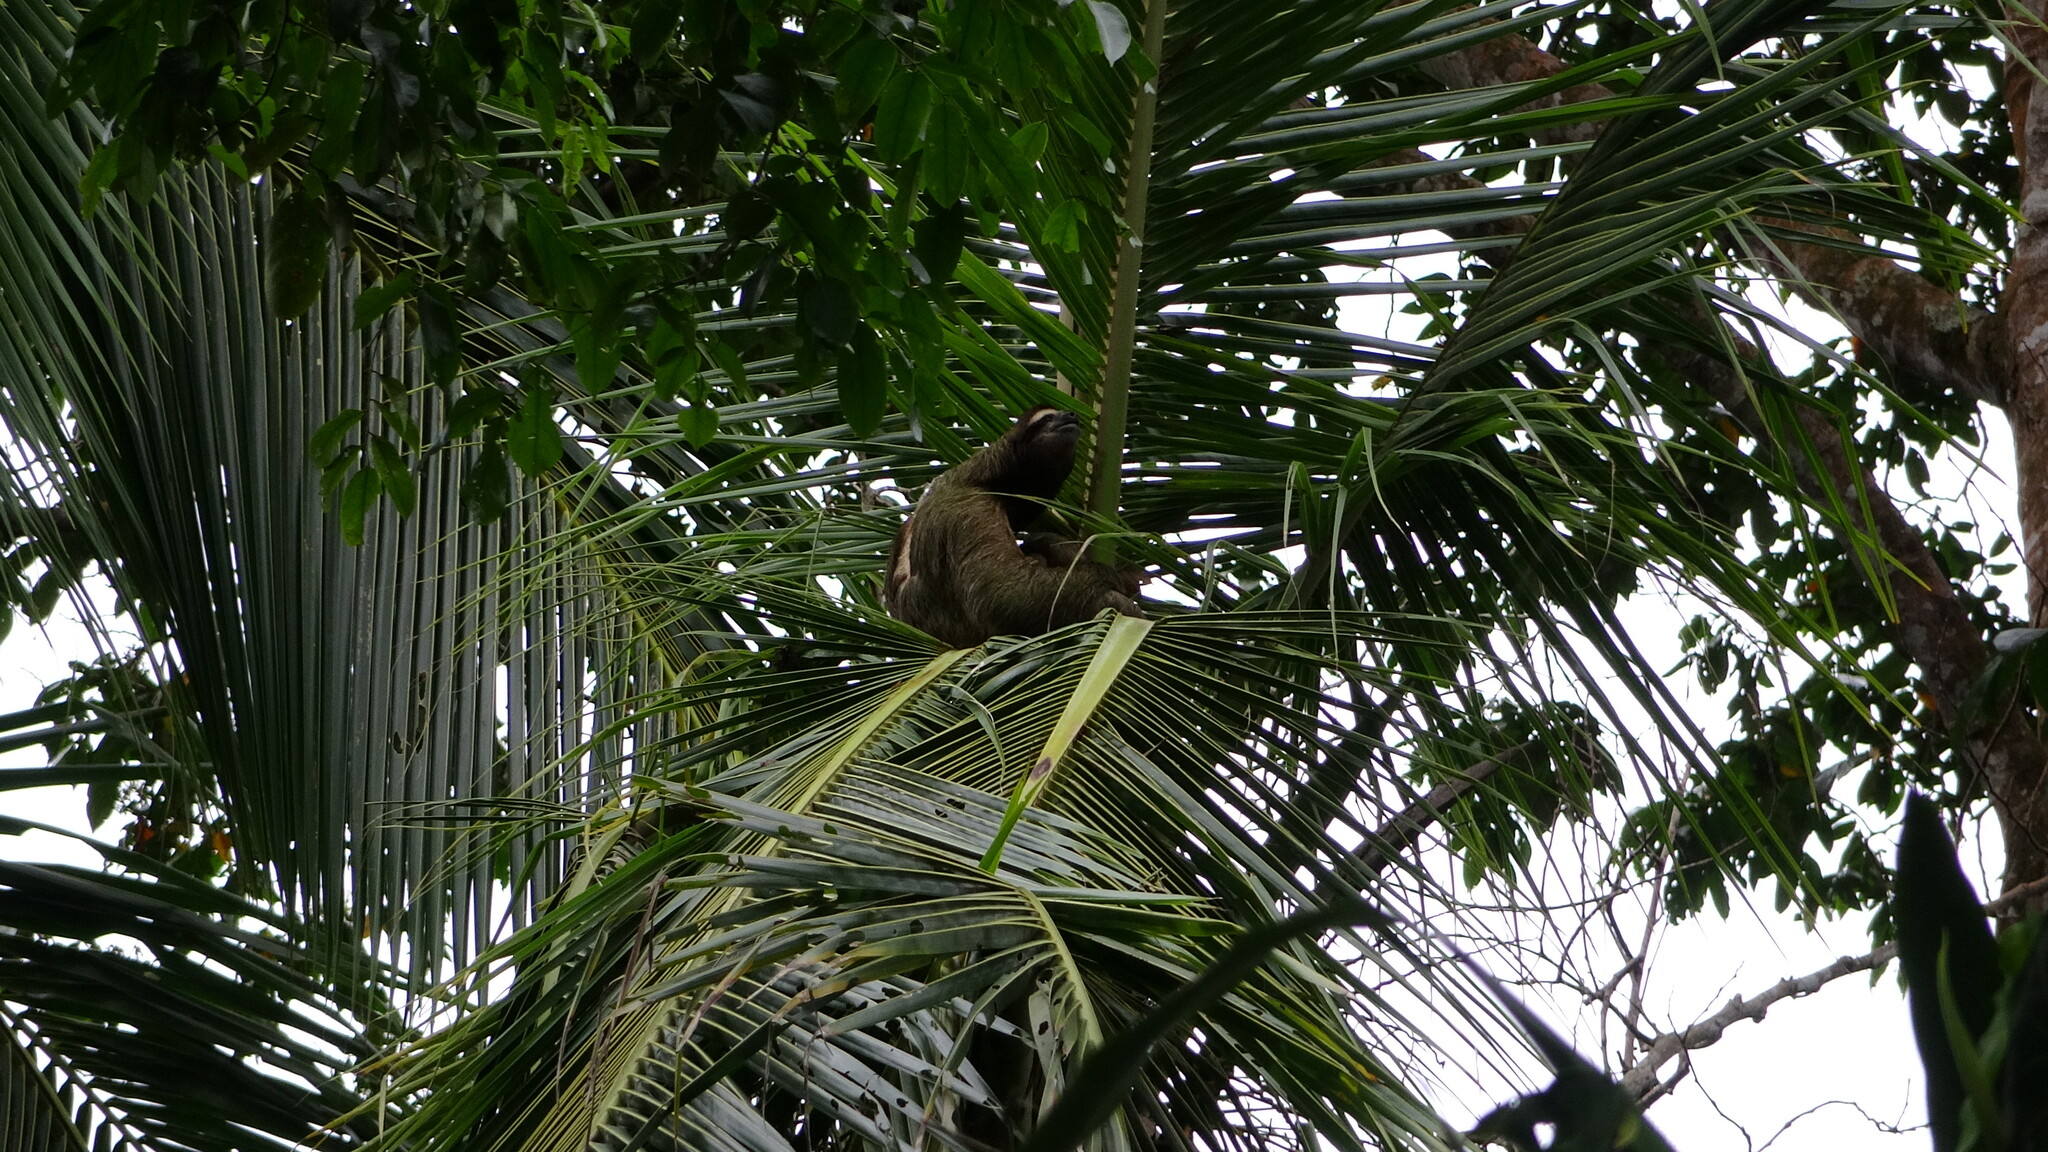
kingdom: Animalia
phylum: Chordata
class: Mammalia
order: Pilosa
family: Bradypodidae
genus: Bradypus
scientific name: Bradypus variegatus
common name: Brown-throated three-toed sloth
